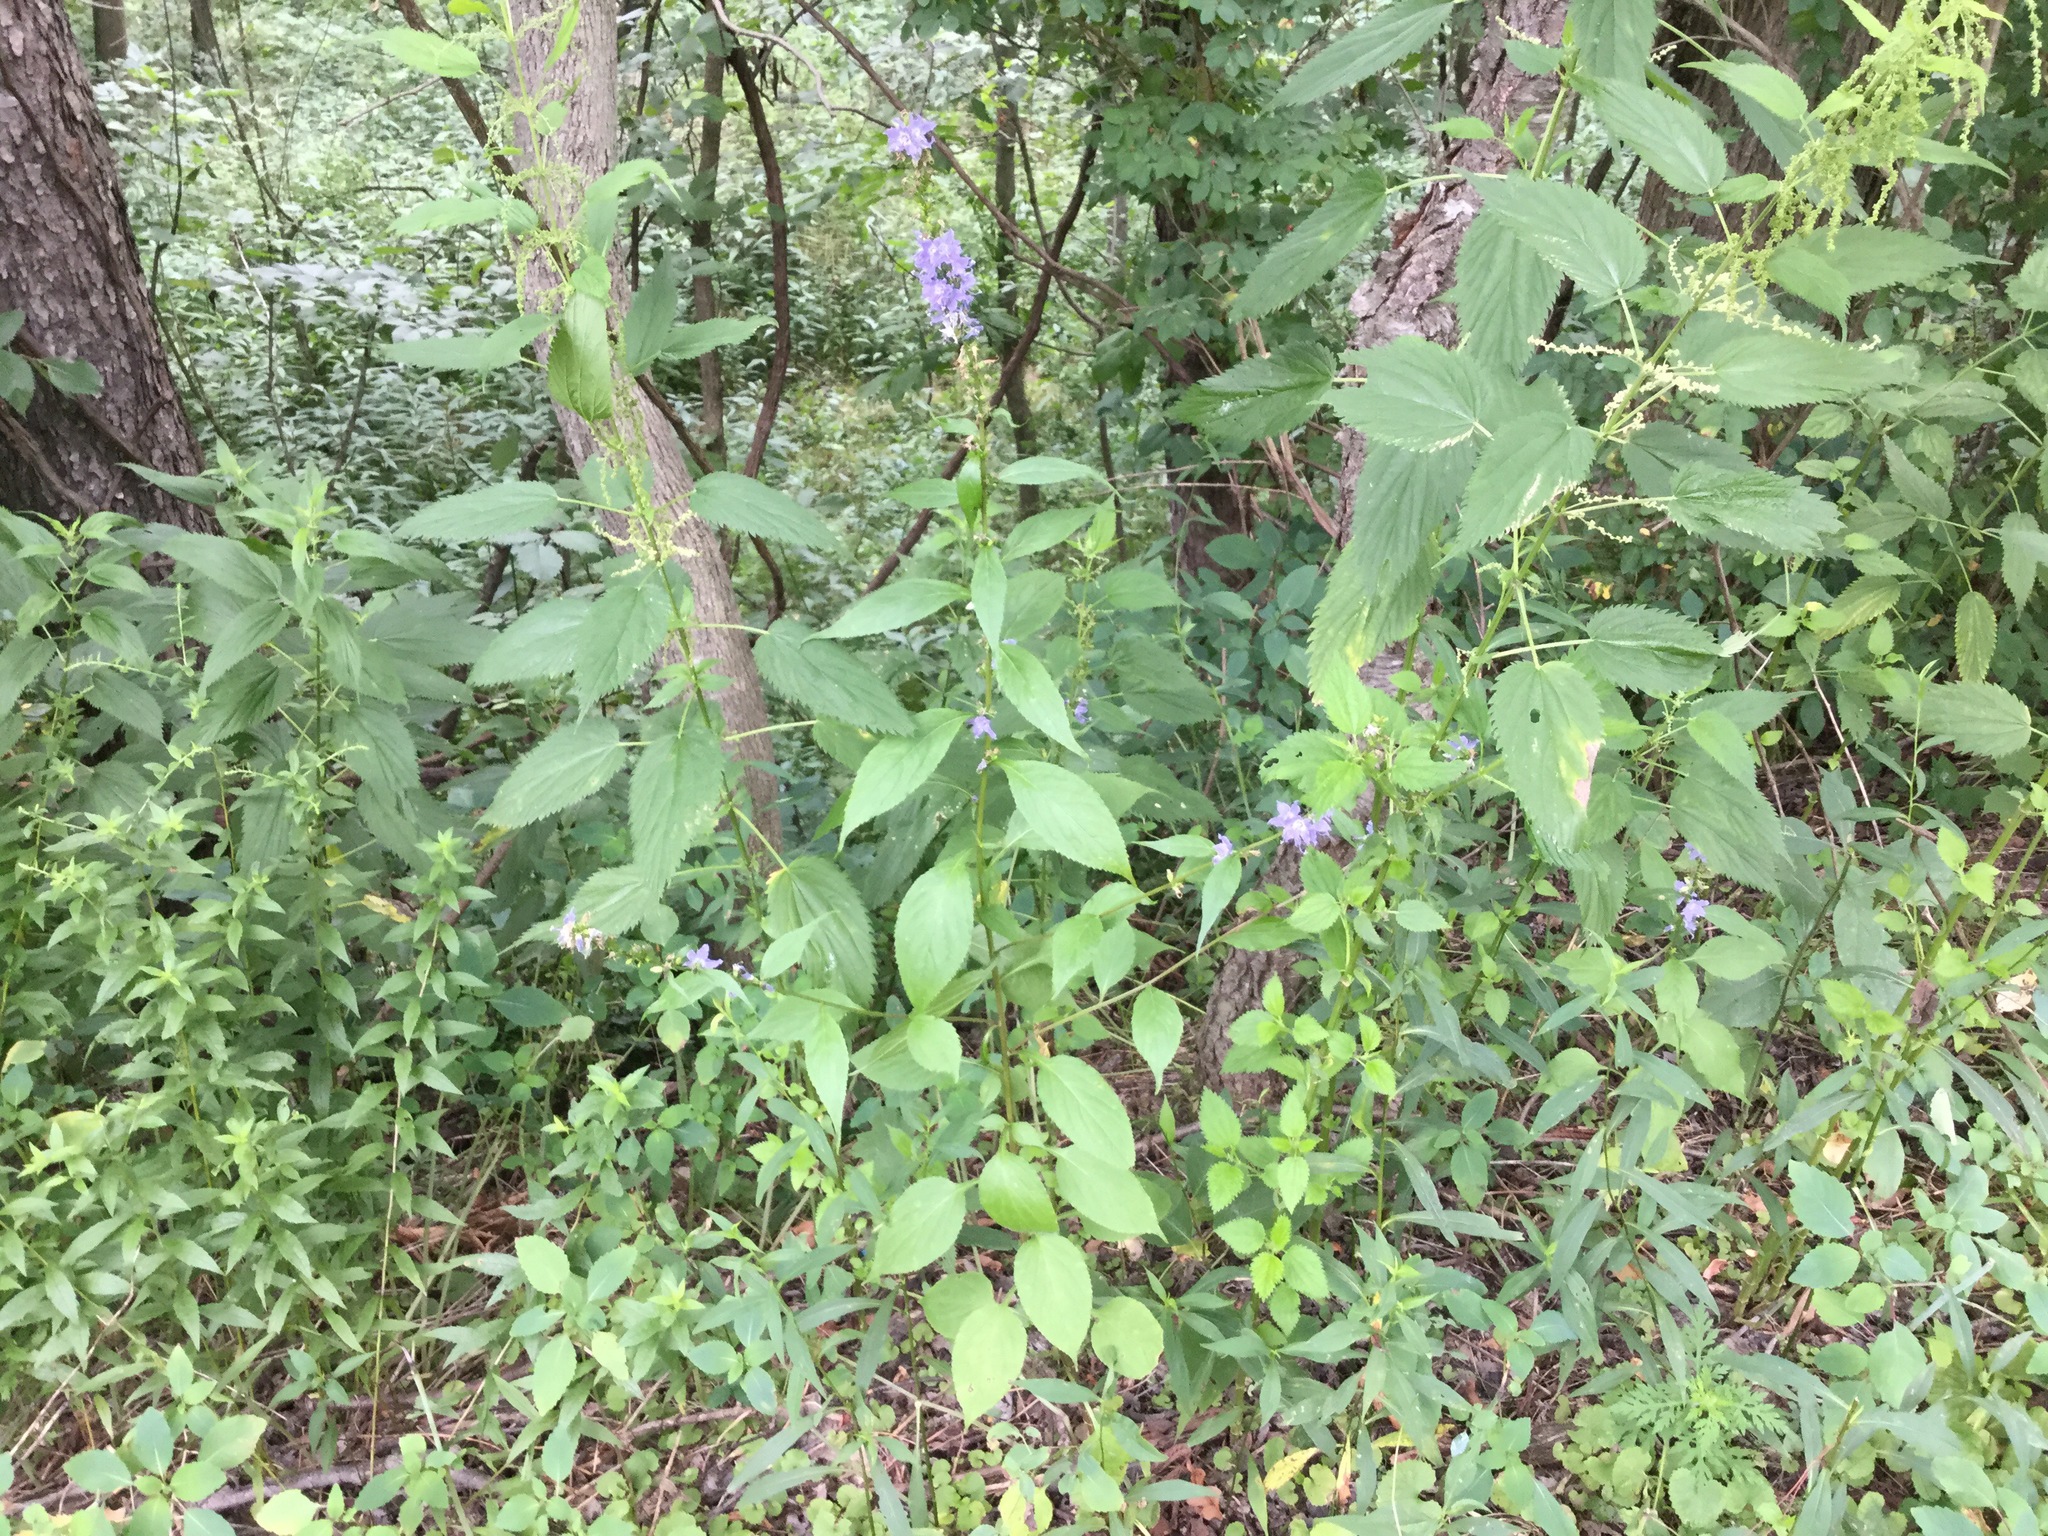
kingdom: Plantae
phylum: Tracheophyta
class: Magnoliopsida
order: Asterales
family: Campanulaceae
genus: Campanulastrum
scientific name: Campanulastrum americanum
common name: American bellflower
